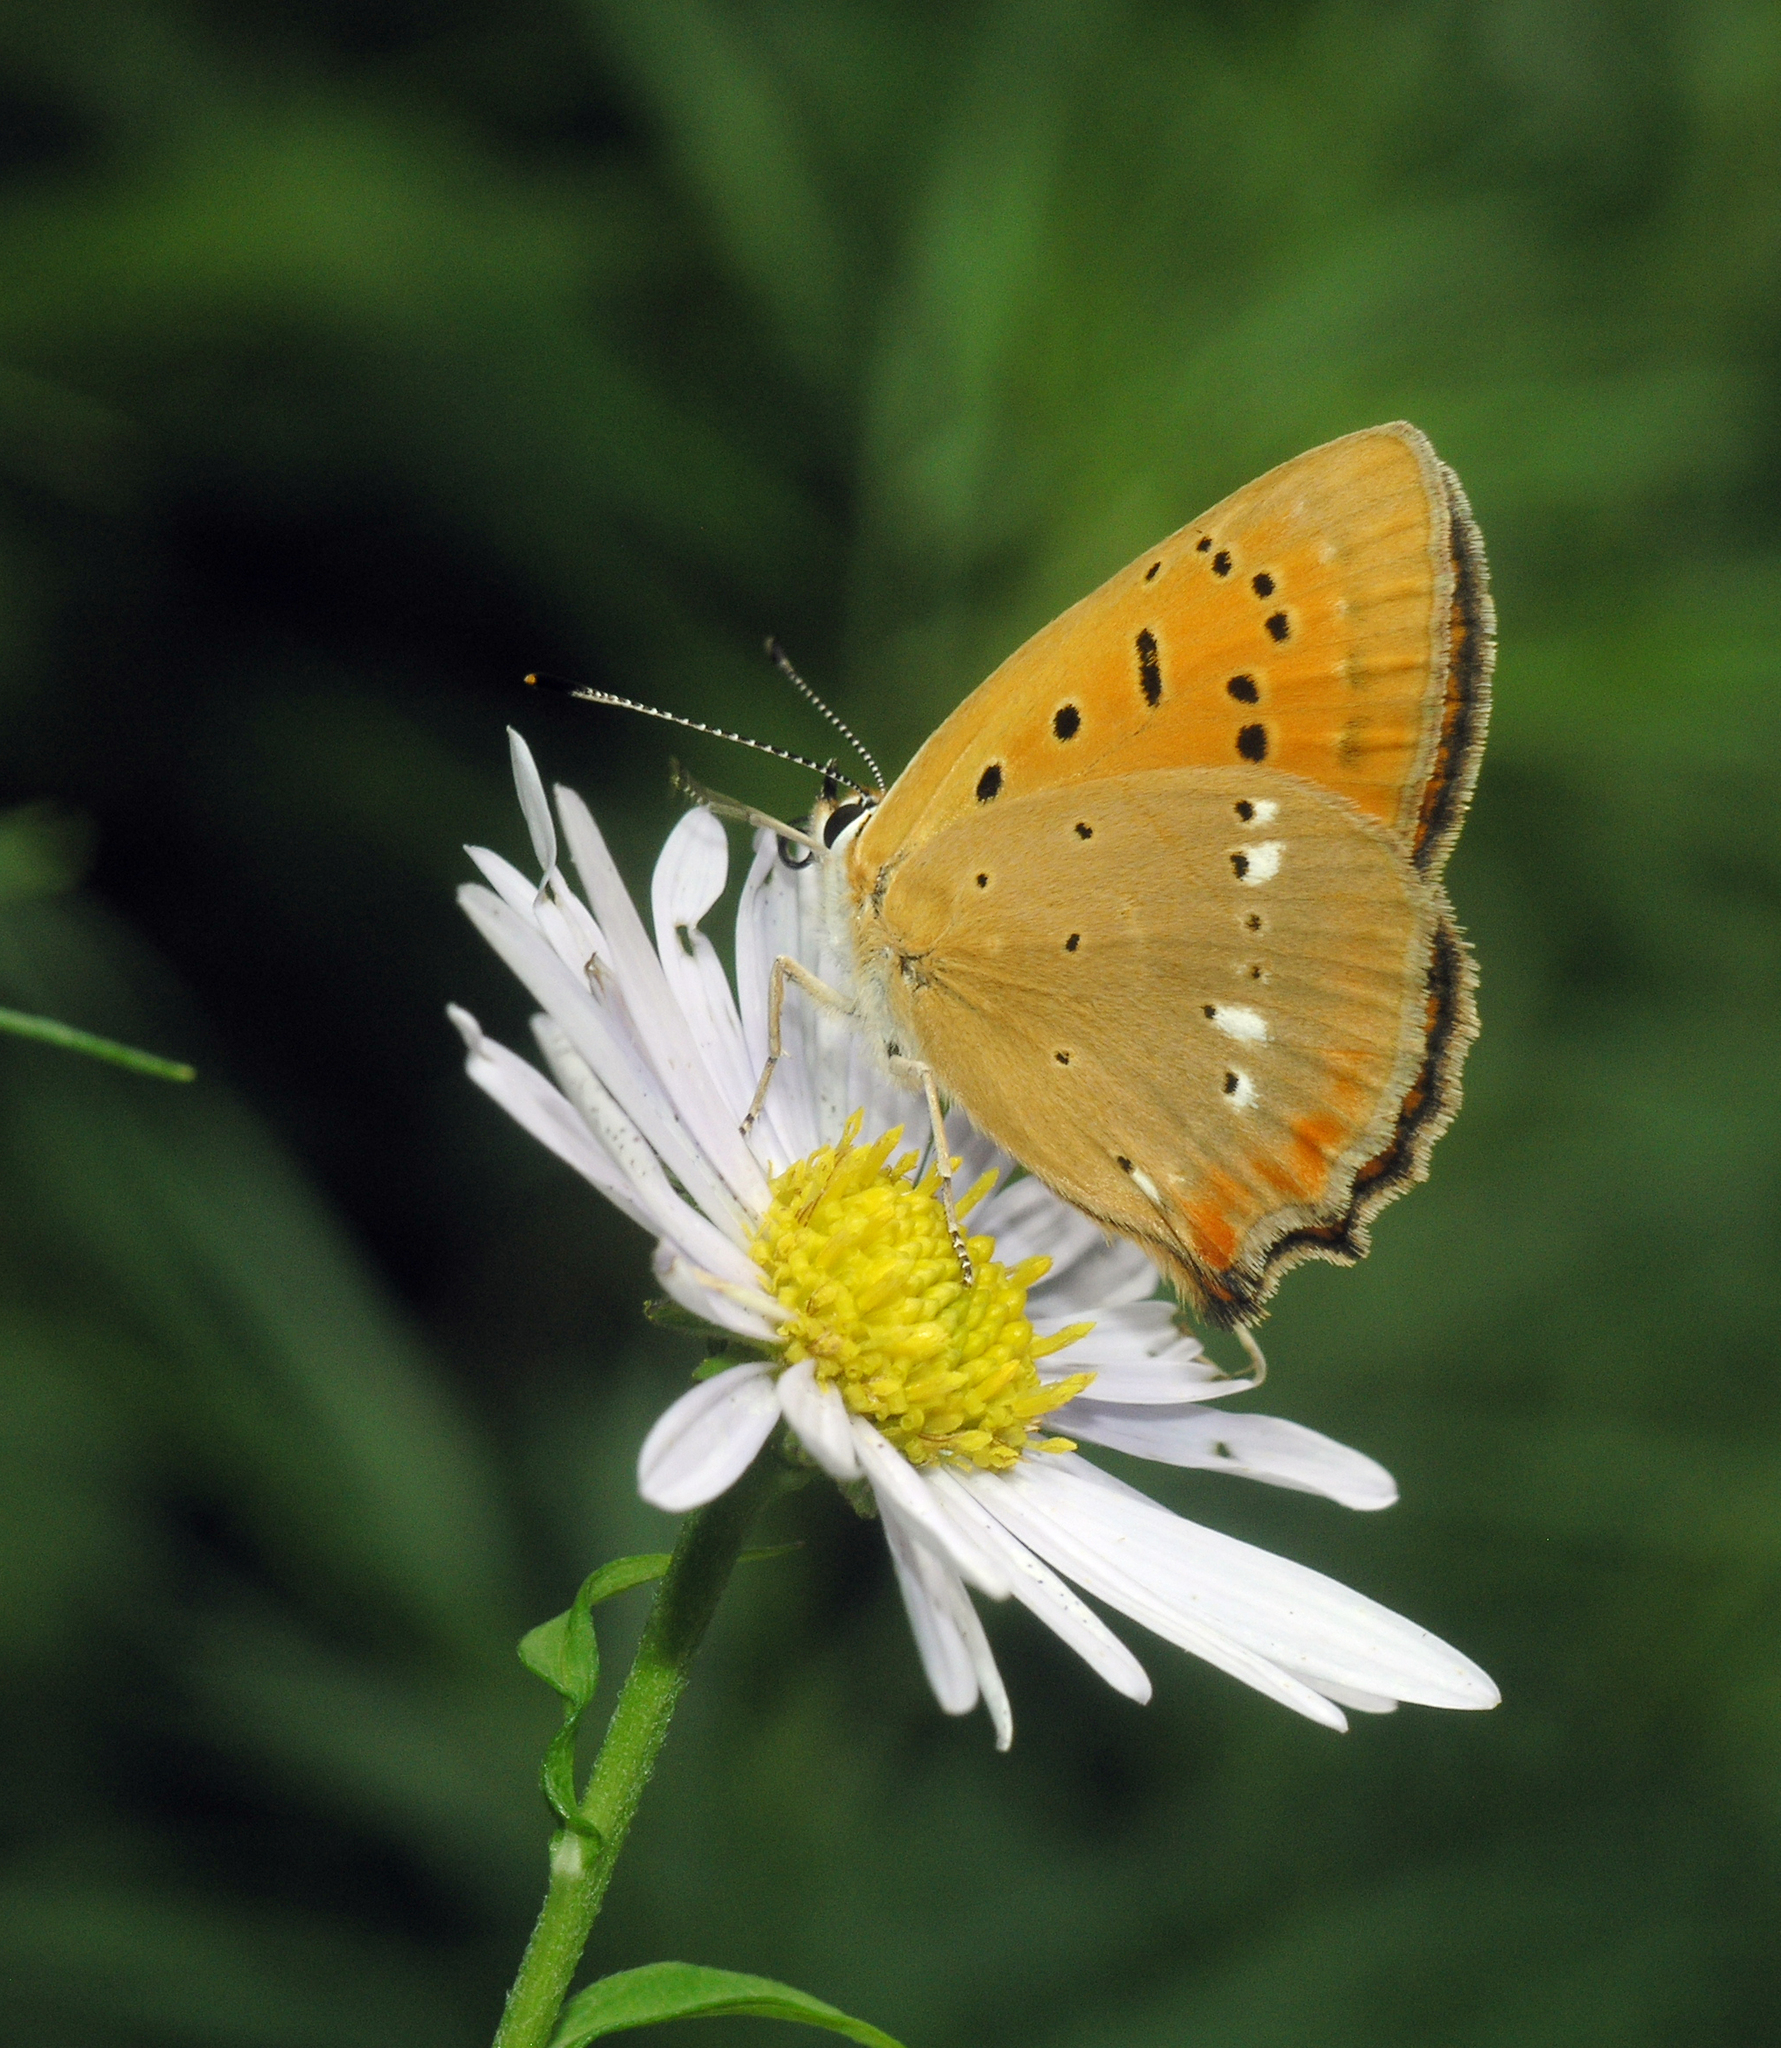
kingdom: Animalia
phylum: Arthropoda
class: Insecta
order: Lepidoptera
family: Lycaenidae
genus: Lycaena
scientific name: Lycaena virgaureae
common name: Scarce copper
